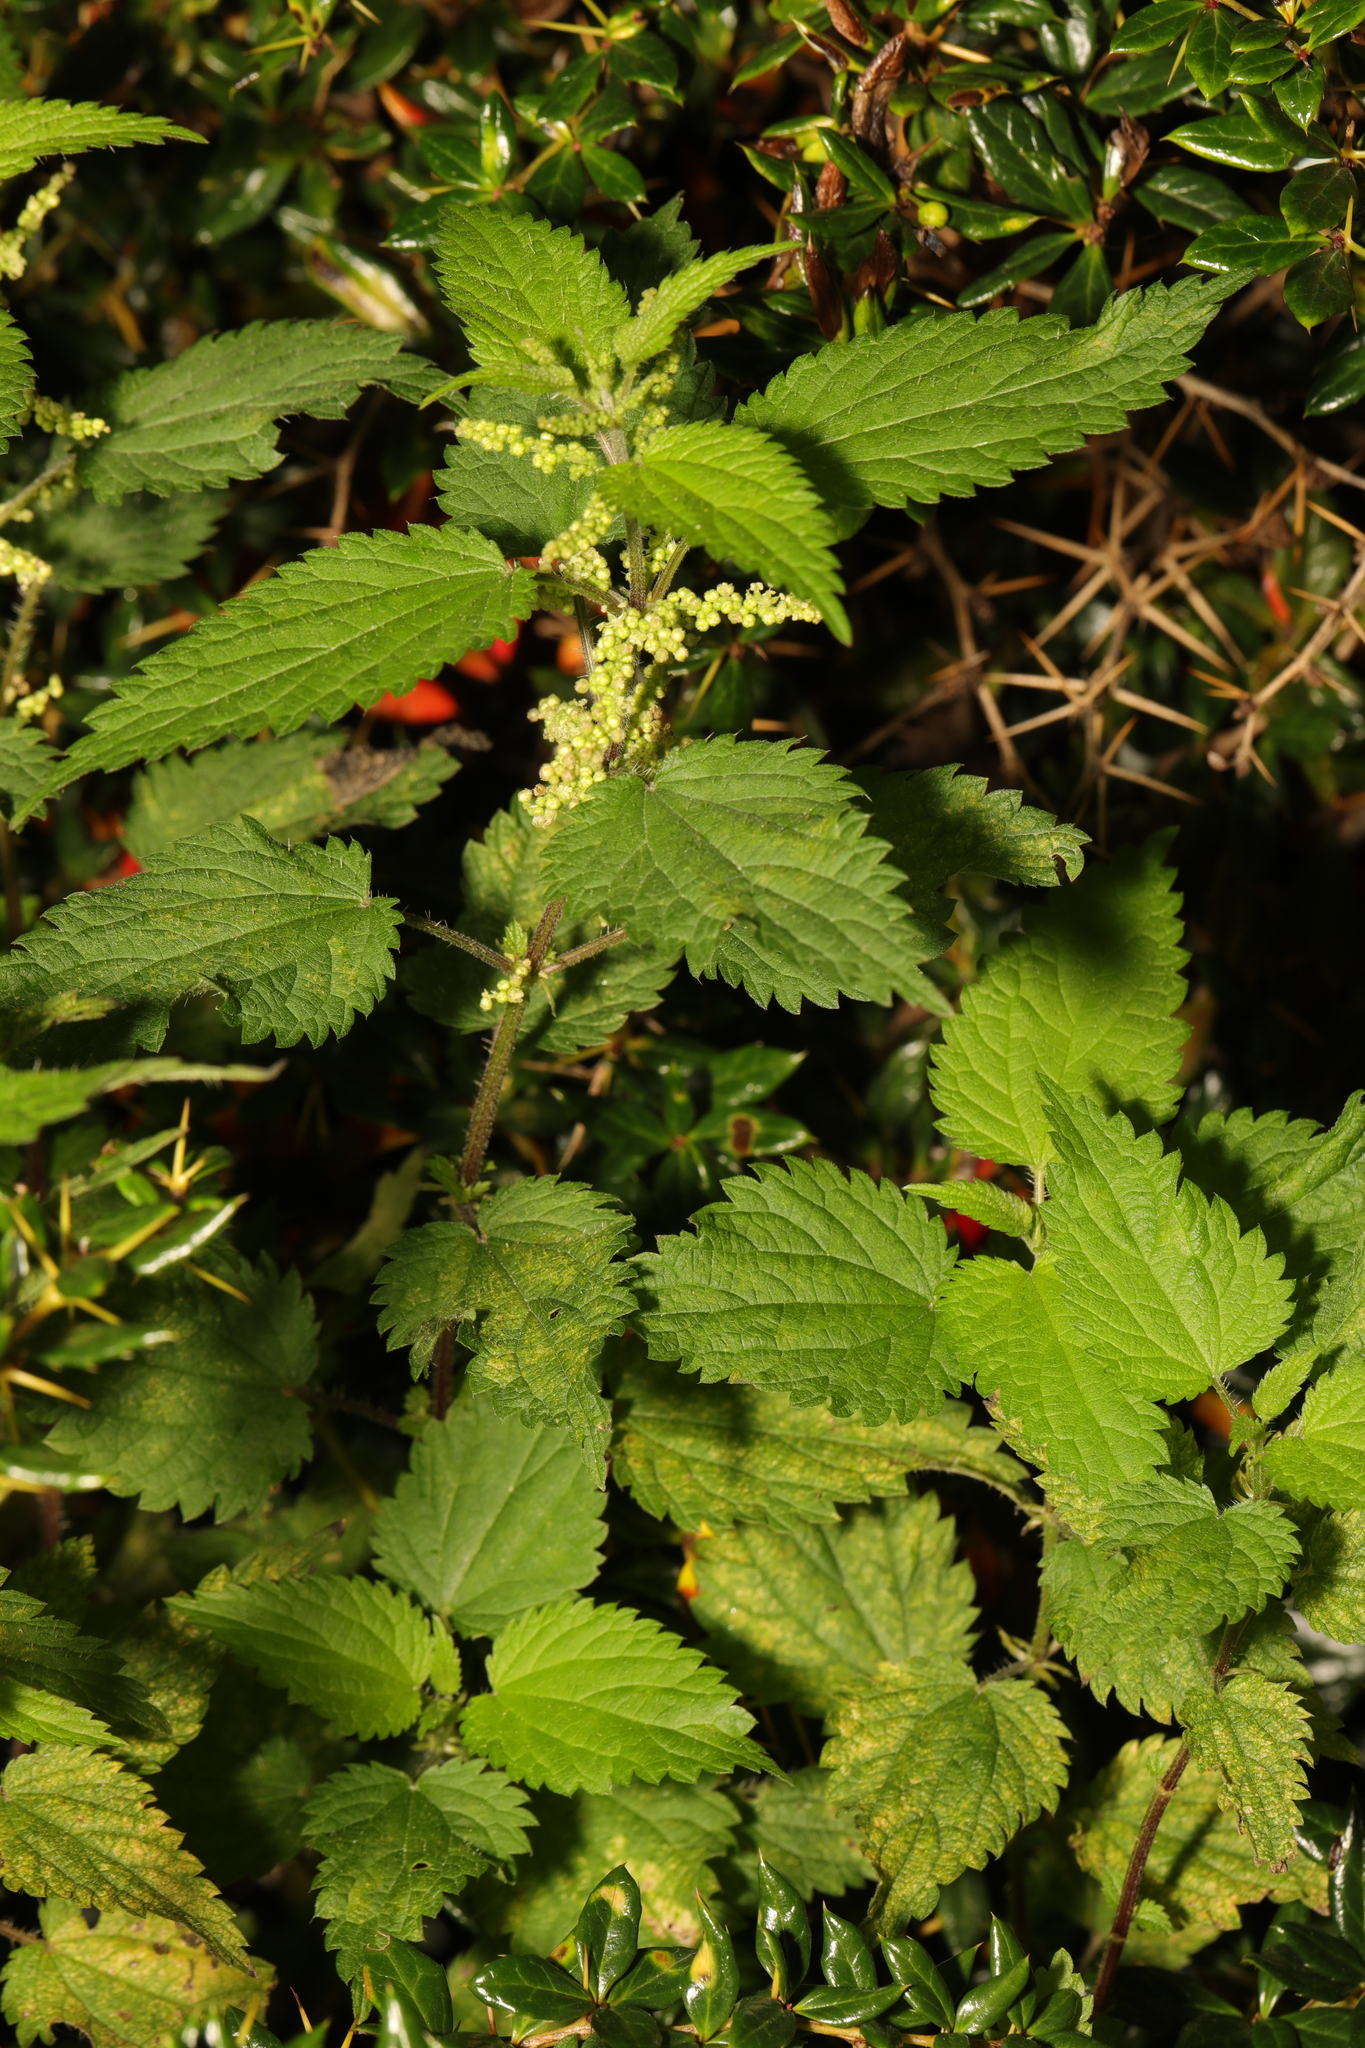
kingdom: Plantae
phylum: Tracheophyta
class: Magnoliopsida
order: Rosales
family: Urticaceae
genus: Urtica
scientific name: Urtica dioica
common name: Common nettle
